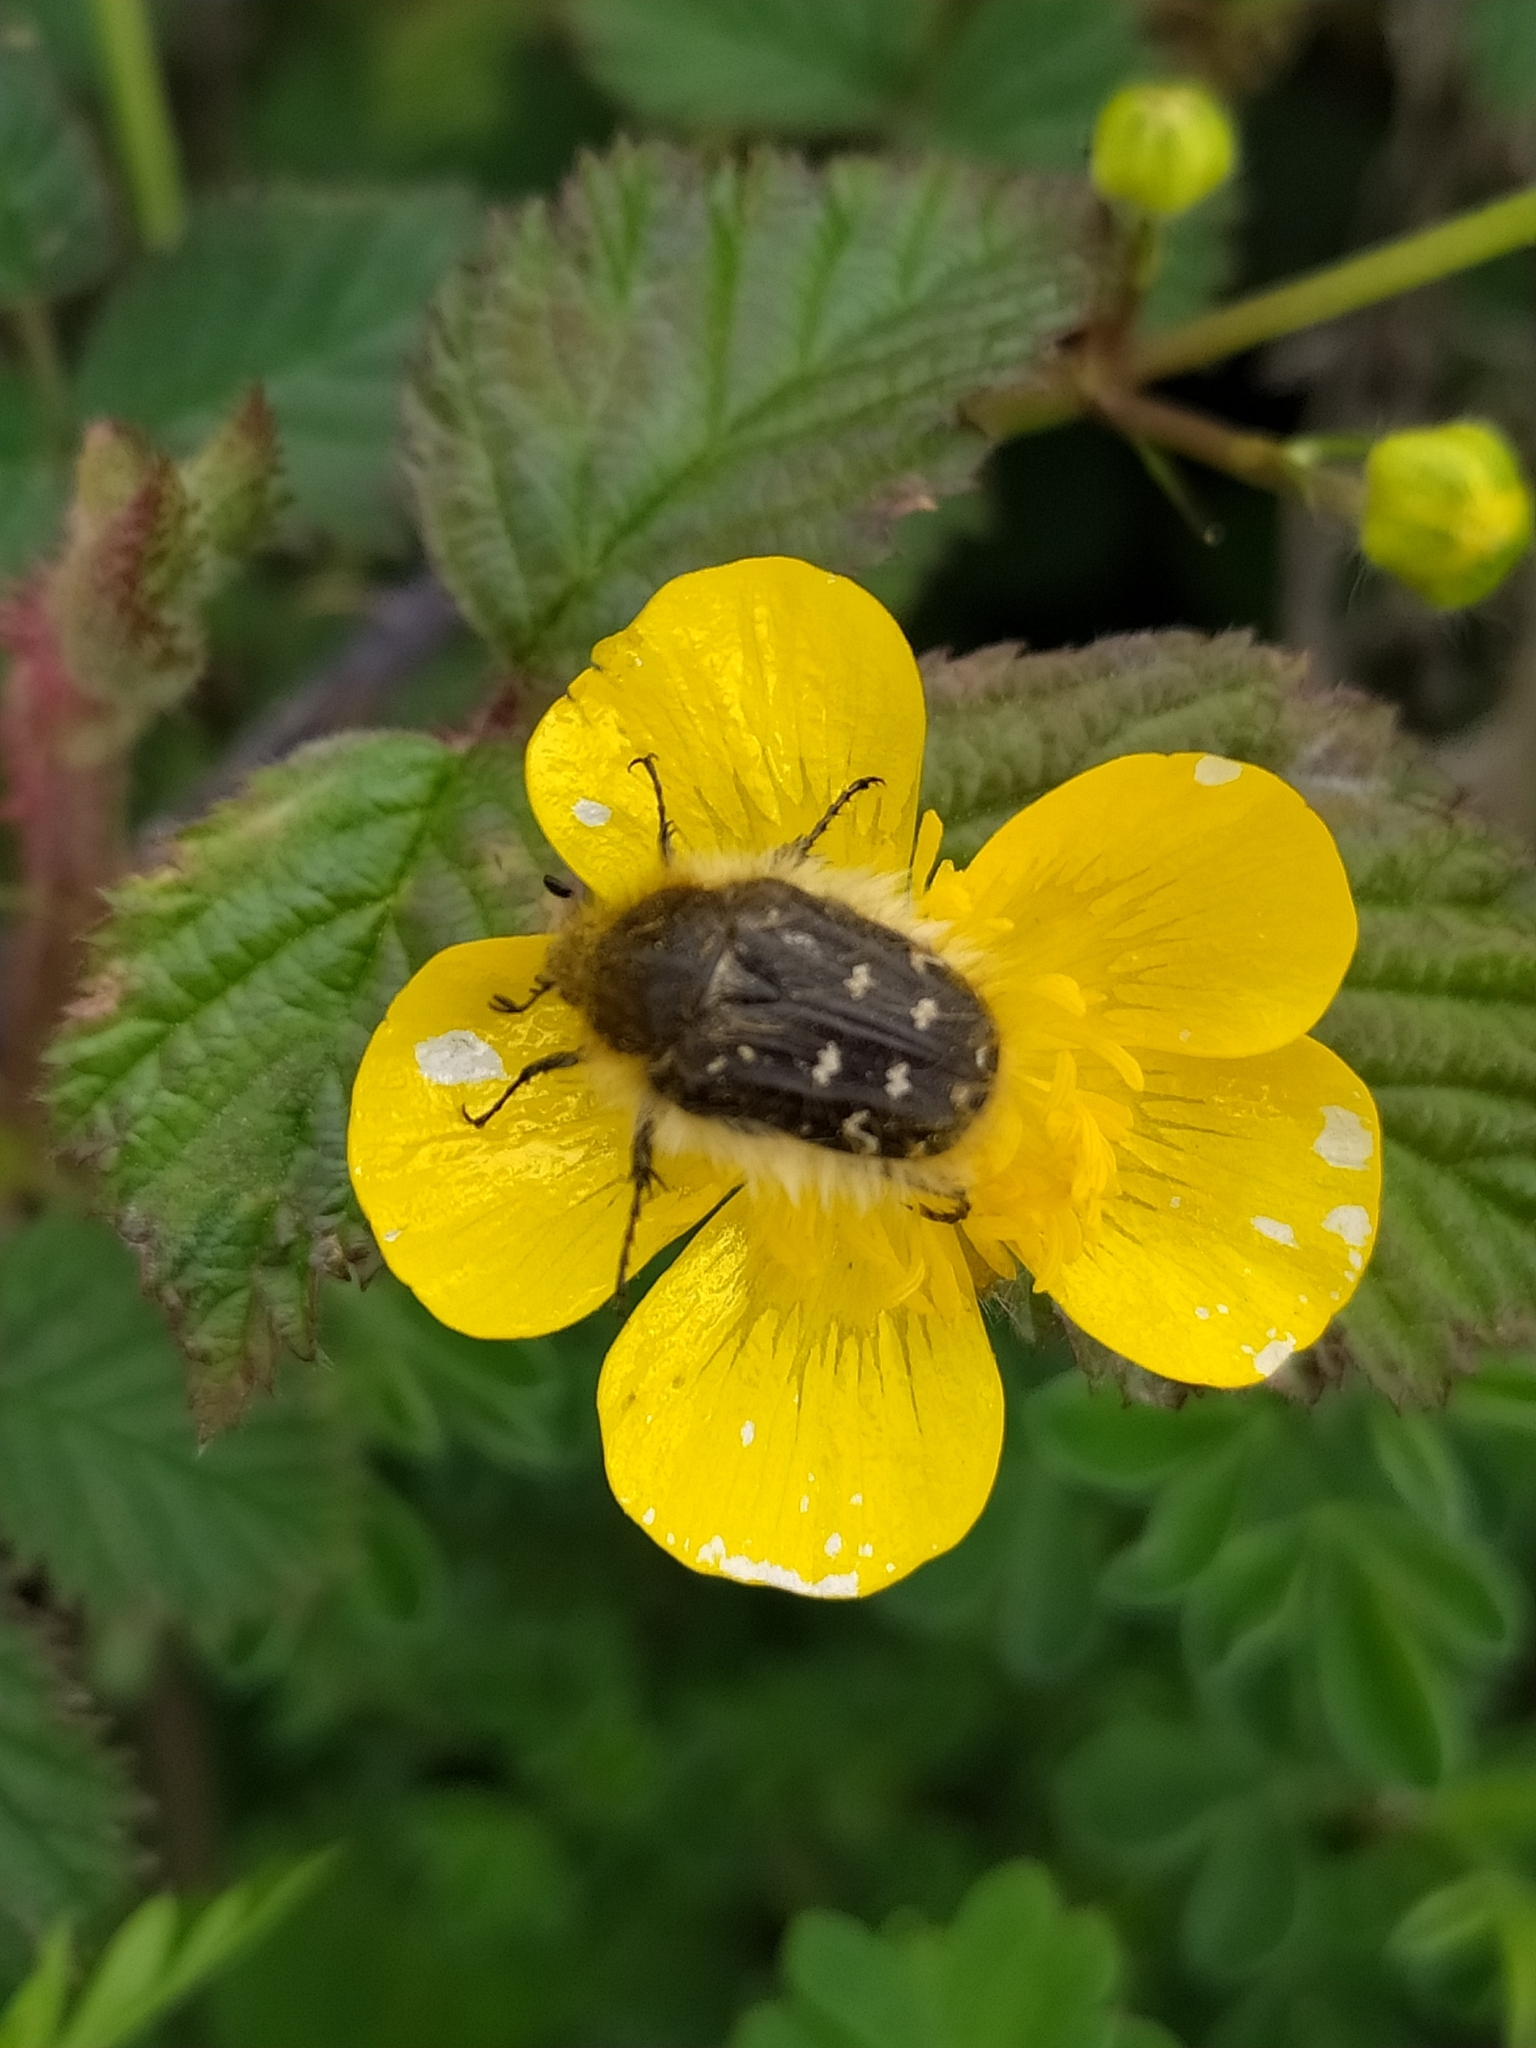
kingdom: Animalia
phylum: Arthropoda
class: Insecta
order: Coleoptera
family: Scarabaeidae
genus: Tropinota
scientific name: Tropinota squalida
